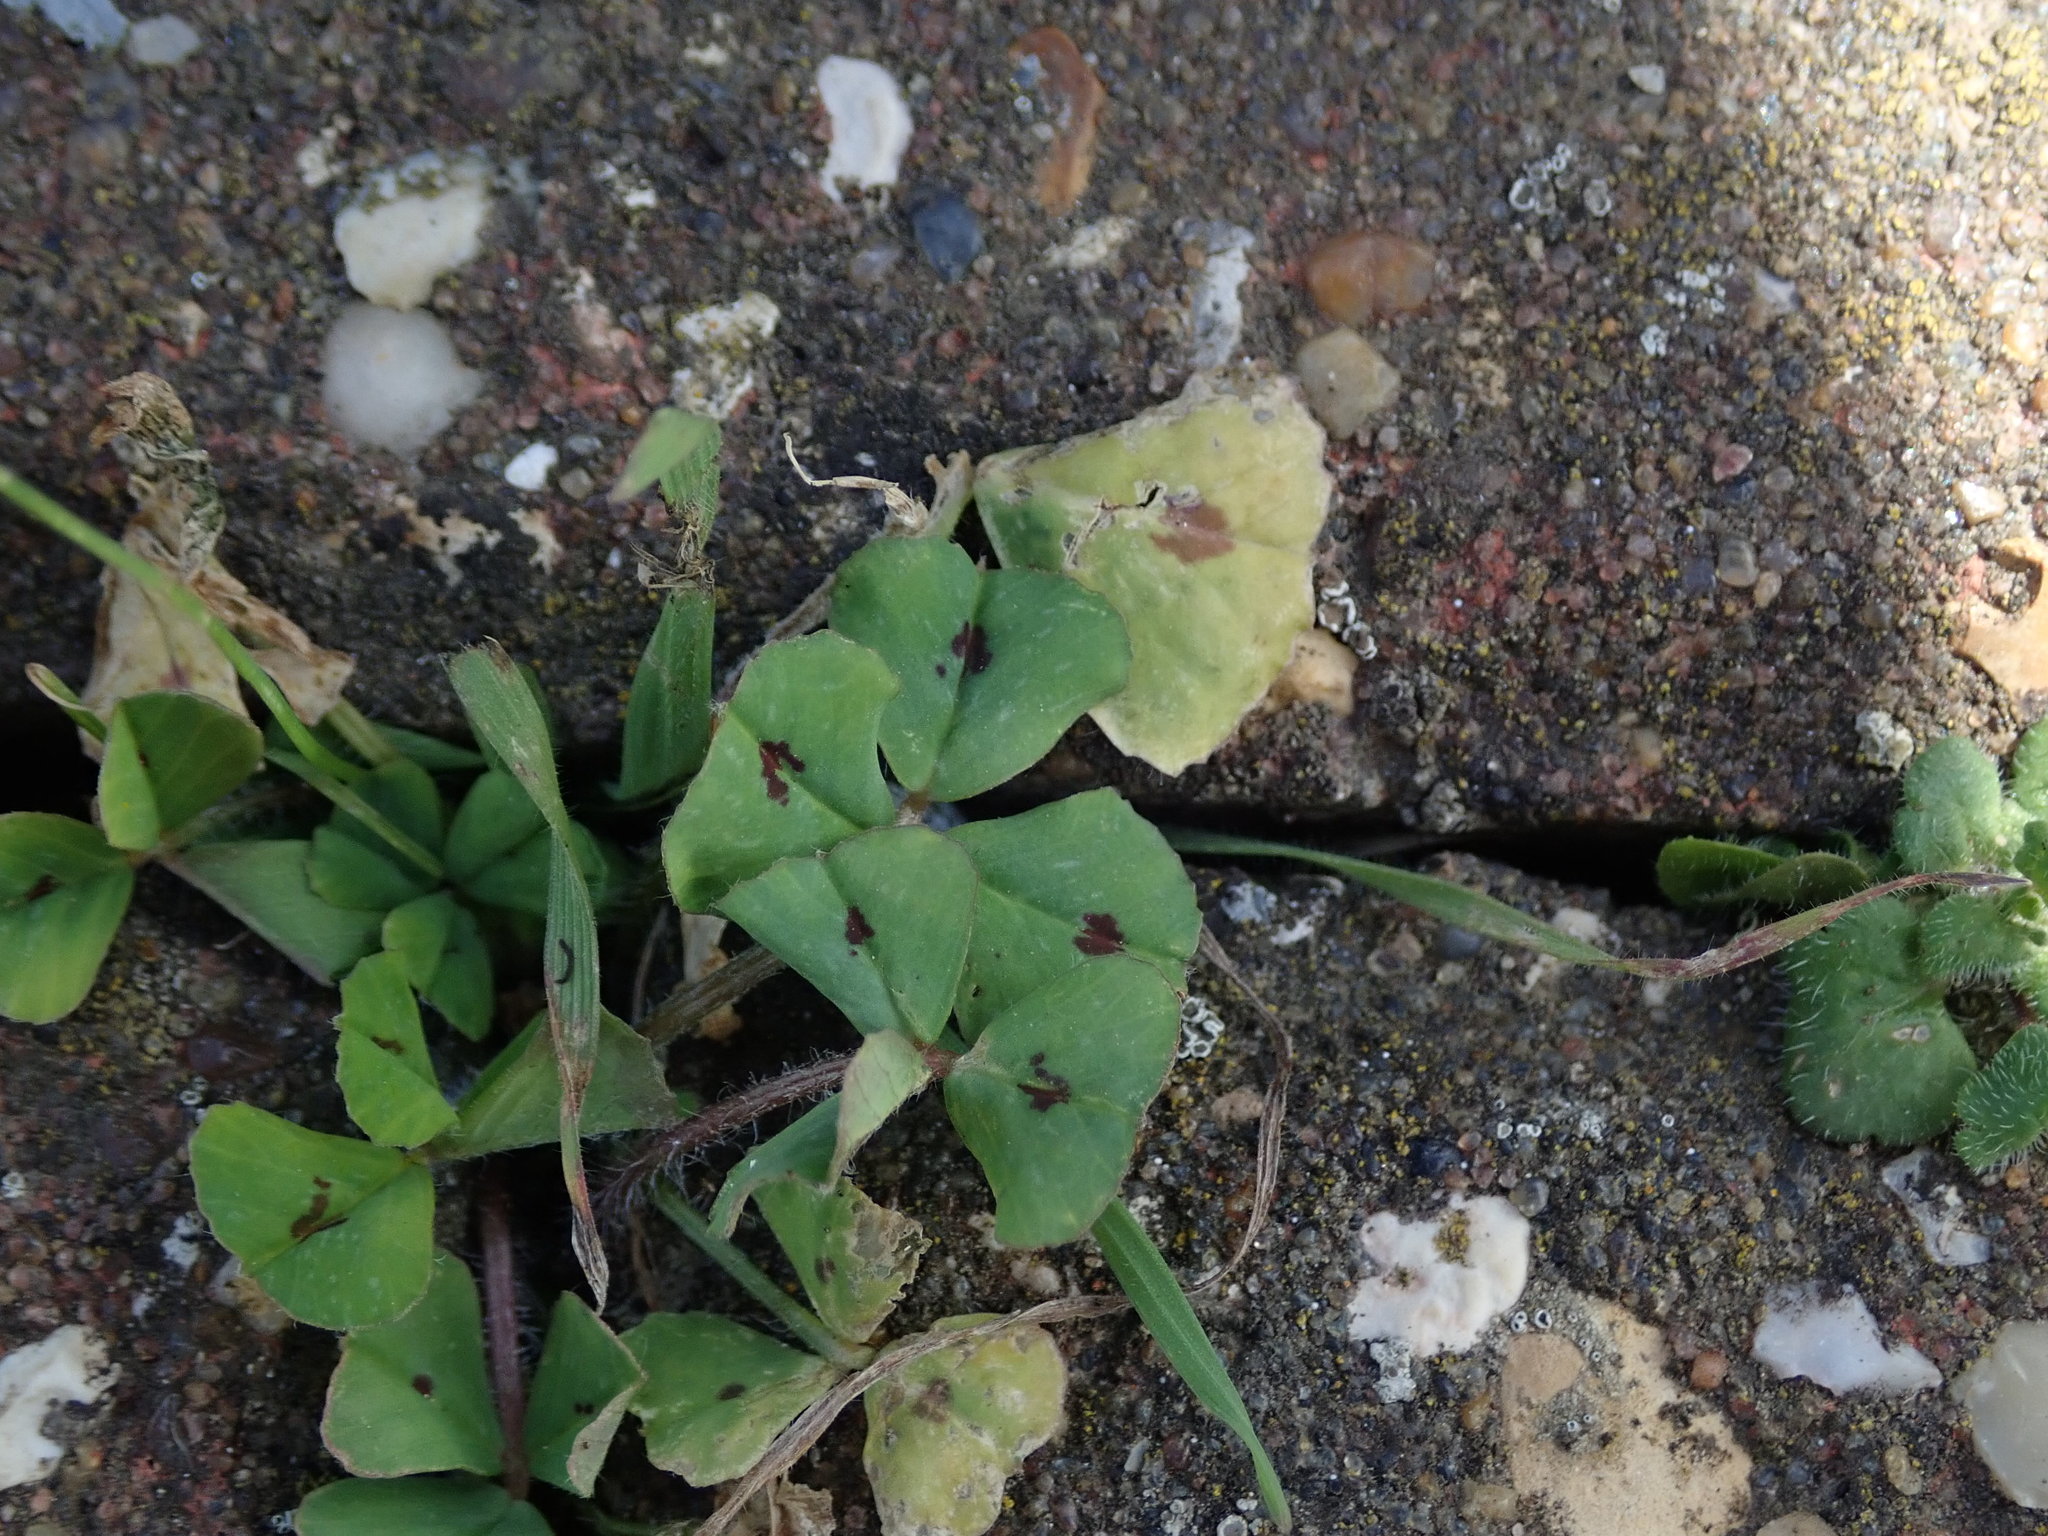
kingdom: Plantae
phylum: Tracheophyta
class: Magnoliopsida
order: Fabales
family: Fabaceae
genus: Medicago
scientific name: Medicago arabica
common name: Spotted medick
